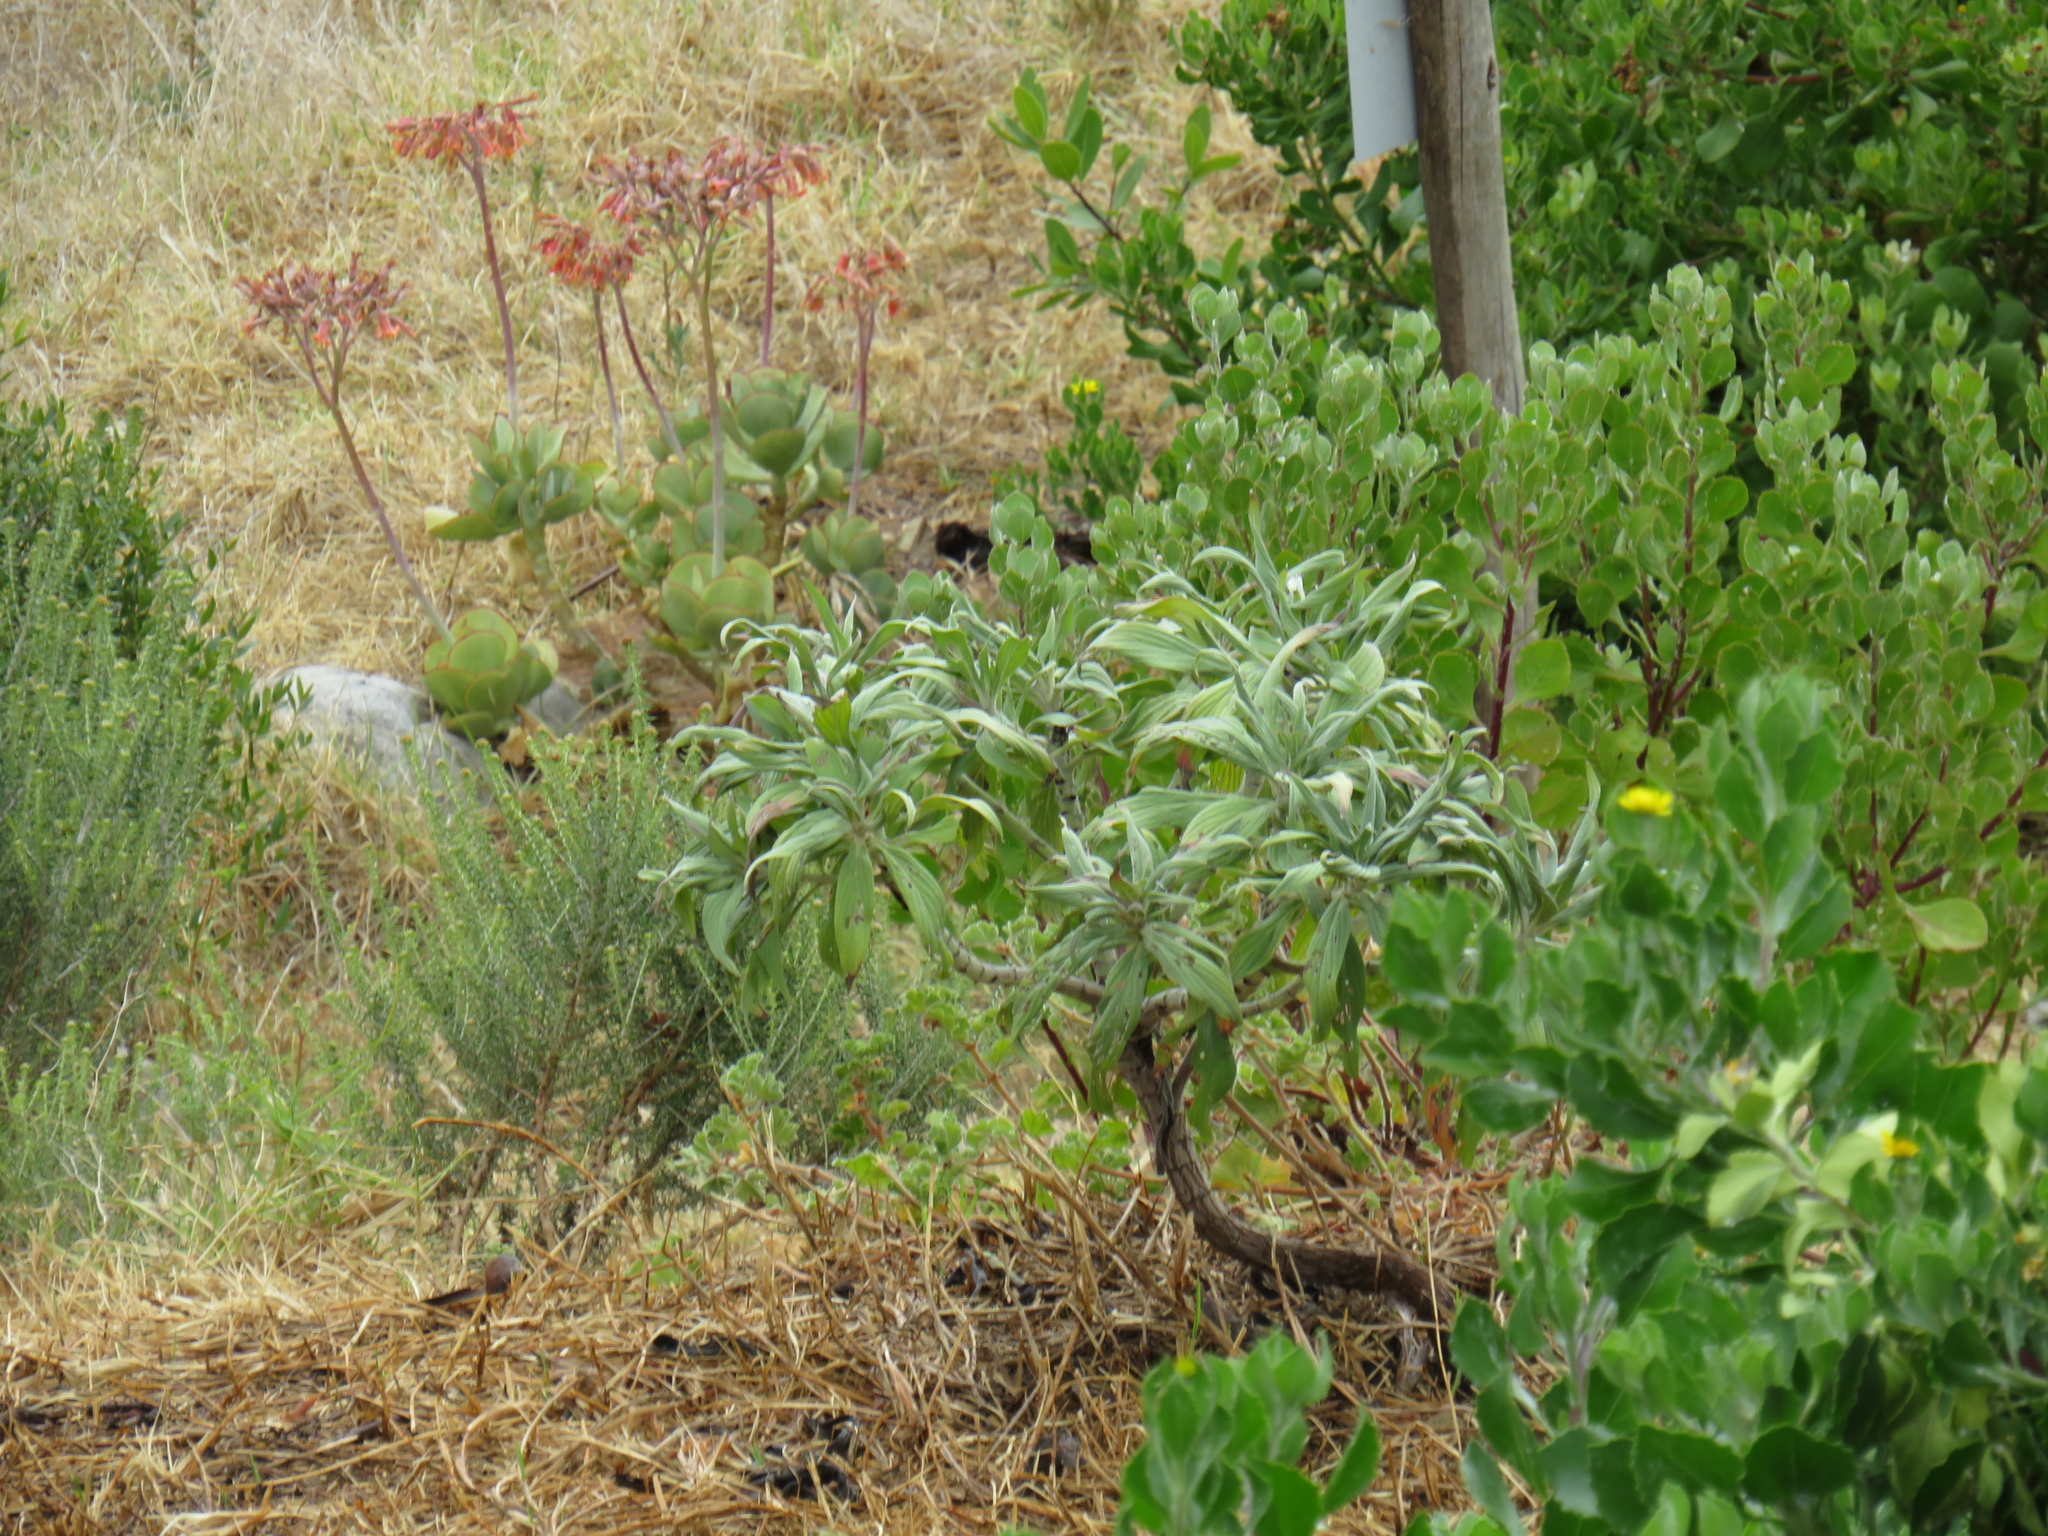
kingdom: Plantae
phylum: Tracheophyta
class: Magnoliopsida
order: Boraginales
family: Boraginaceae
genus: Echium
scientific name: Echium candicans
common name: Pride of madeira
